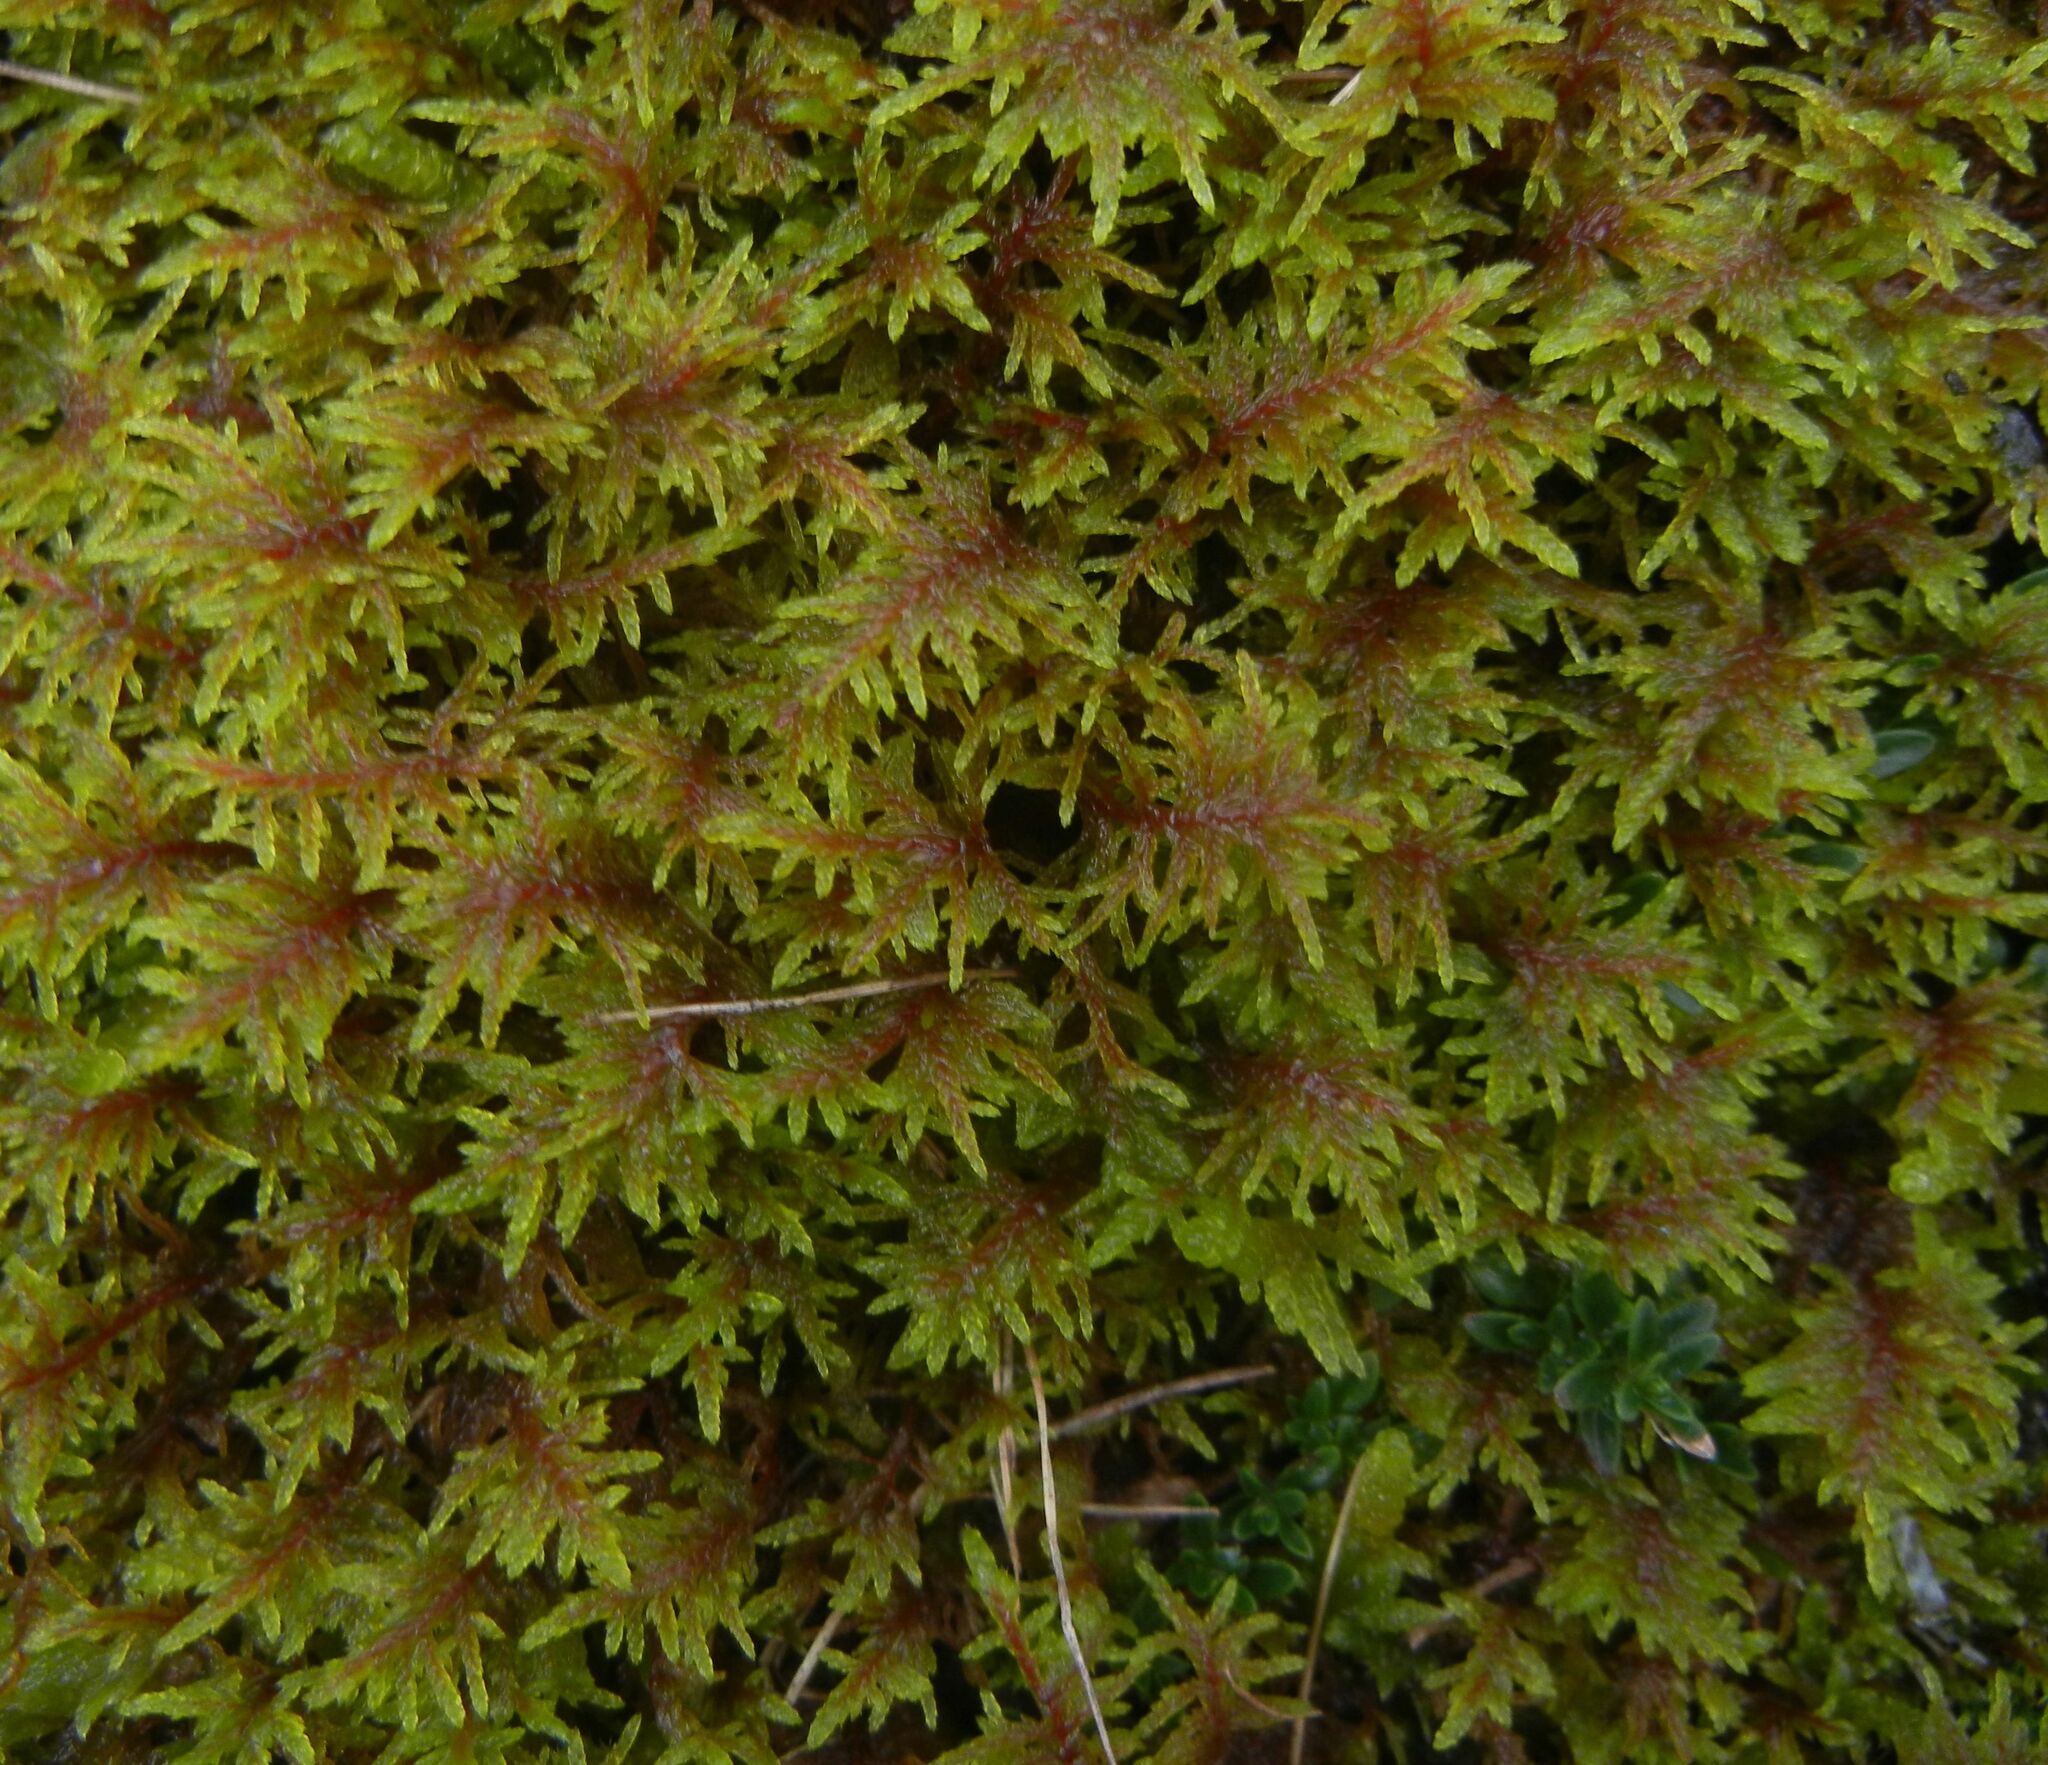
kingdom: Plantae
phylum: Bryophyta
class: Bryopsida
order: Hypnales
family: Hylocomiaceae
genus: Hylocomium
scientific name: Hylocomium splendens
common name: Stairstep moss
